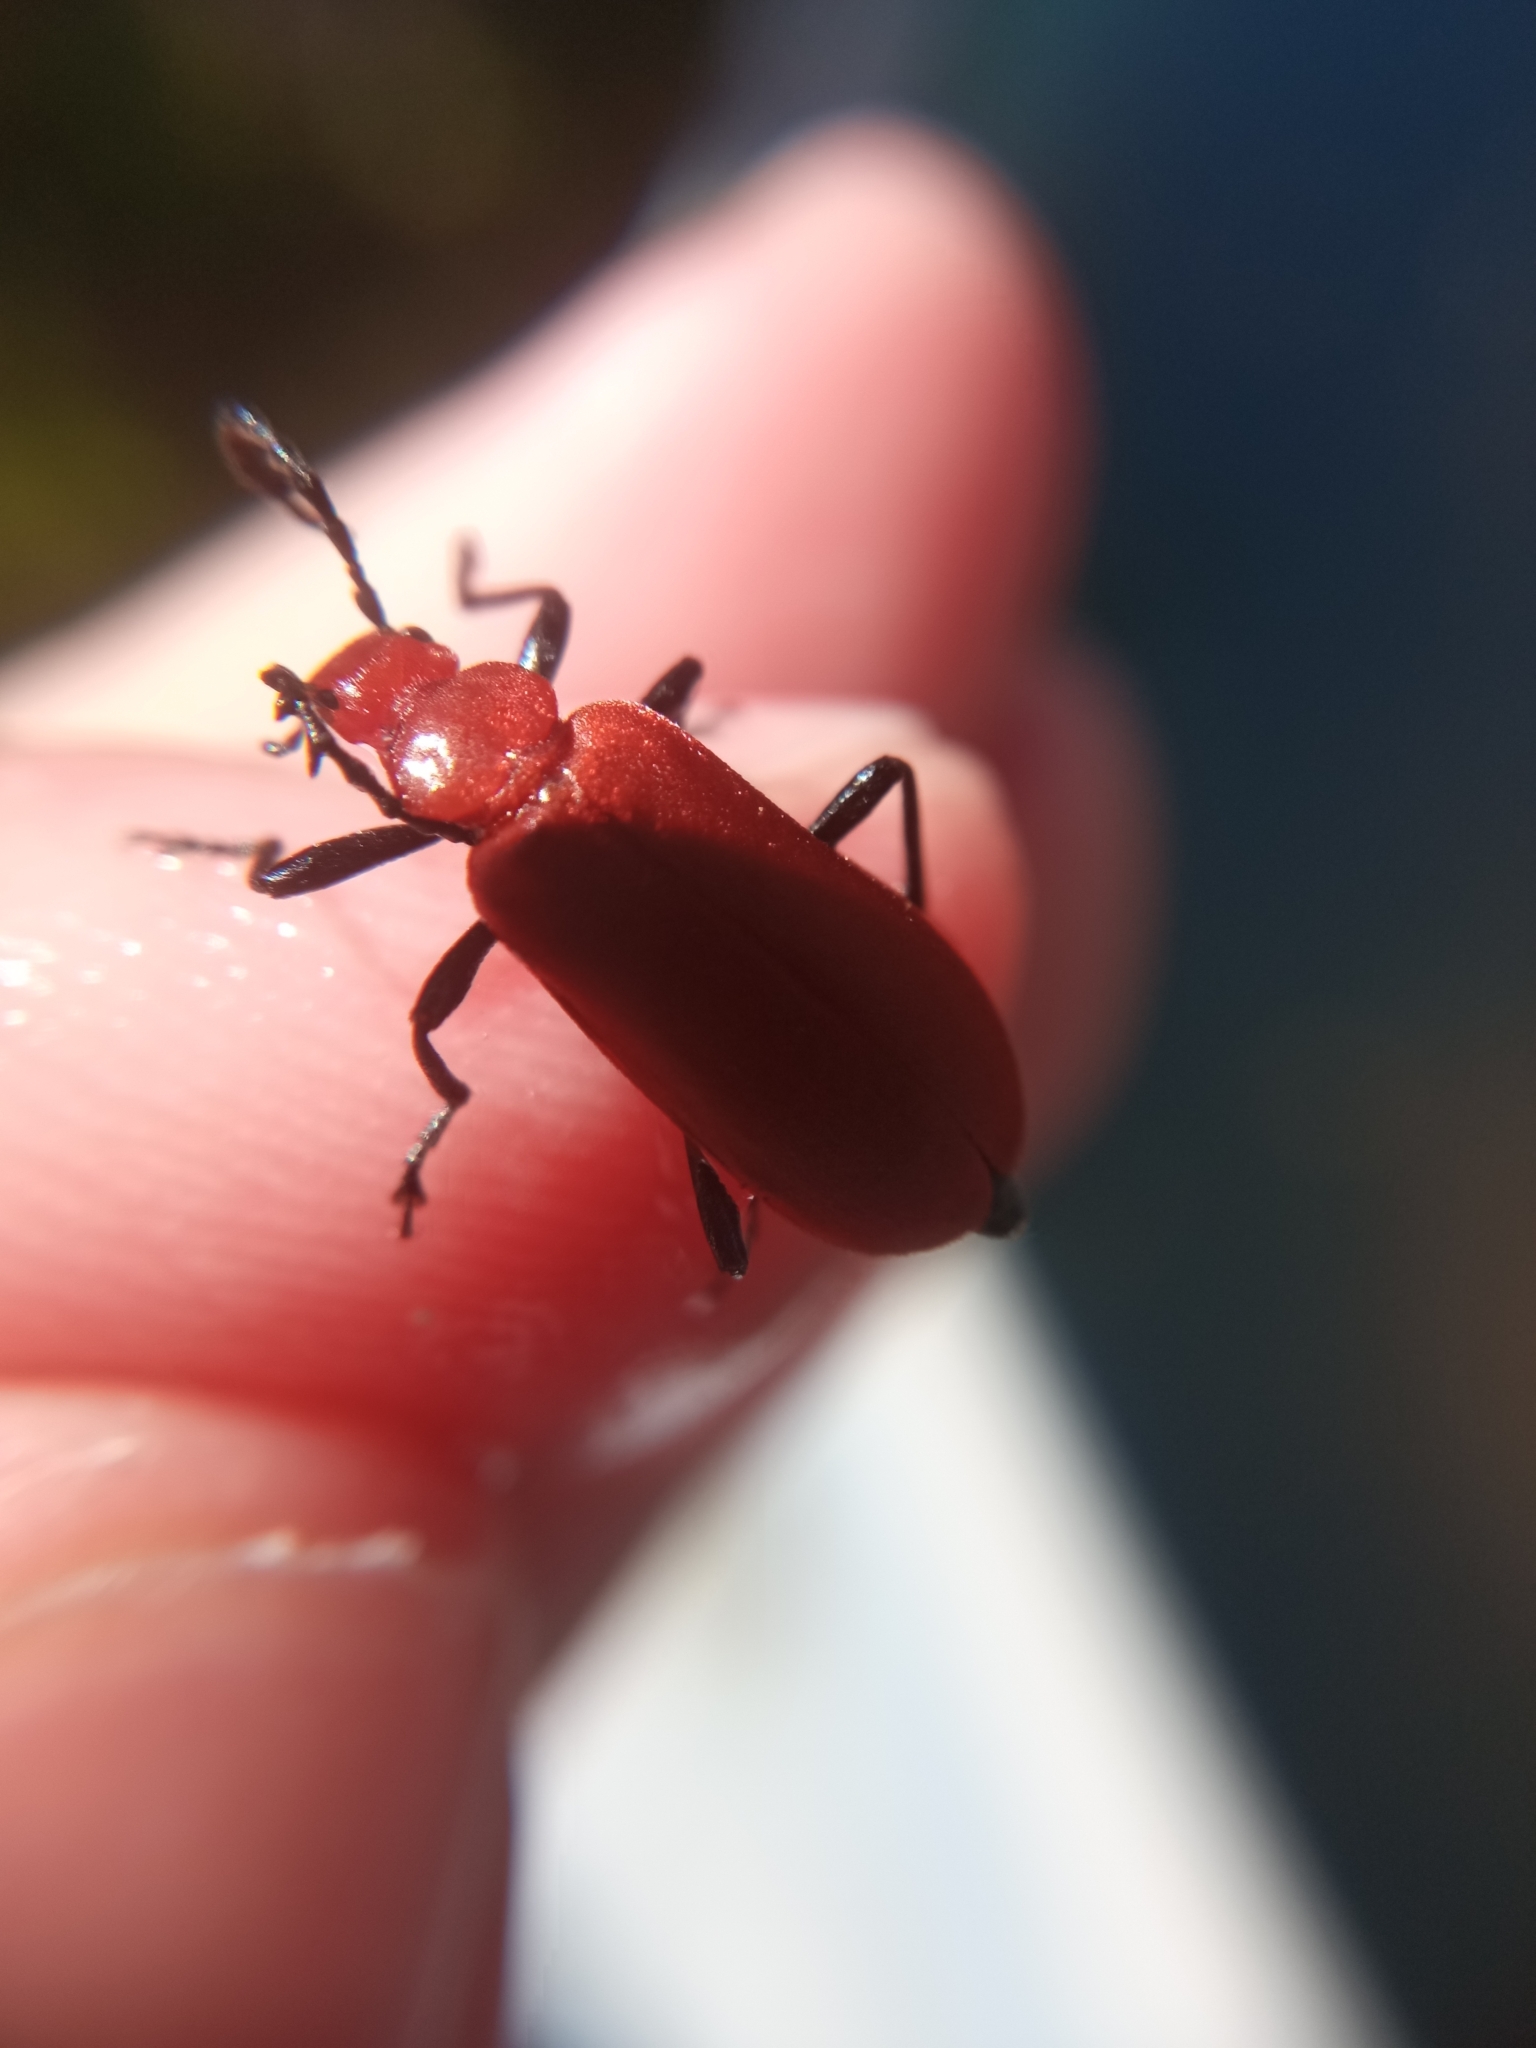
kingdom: Animalia
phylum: Arthropoda
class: Insecta
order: Coleoptera
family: Pyrochroidae
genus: Pyrochroa
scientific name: Pyrochroa serraticornis
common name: Red-headed cardinal beetle
